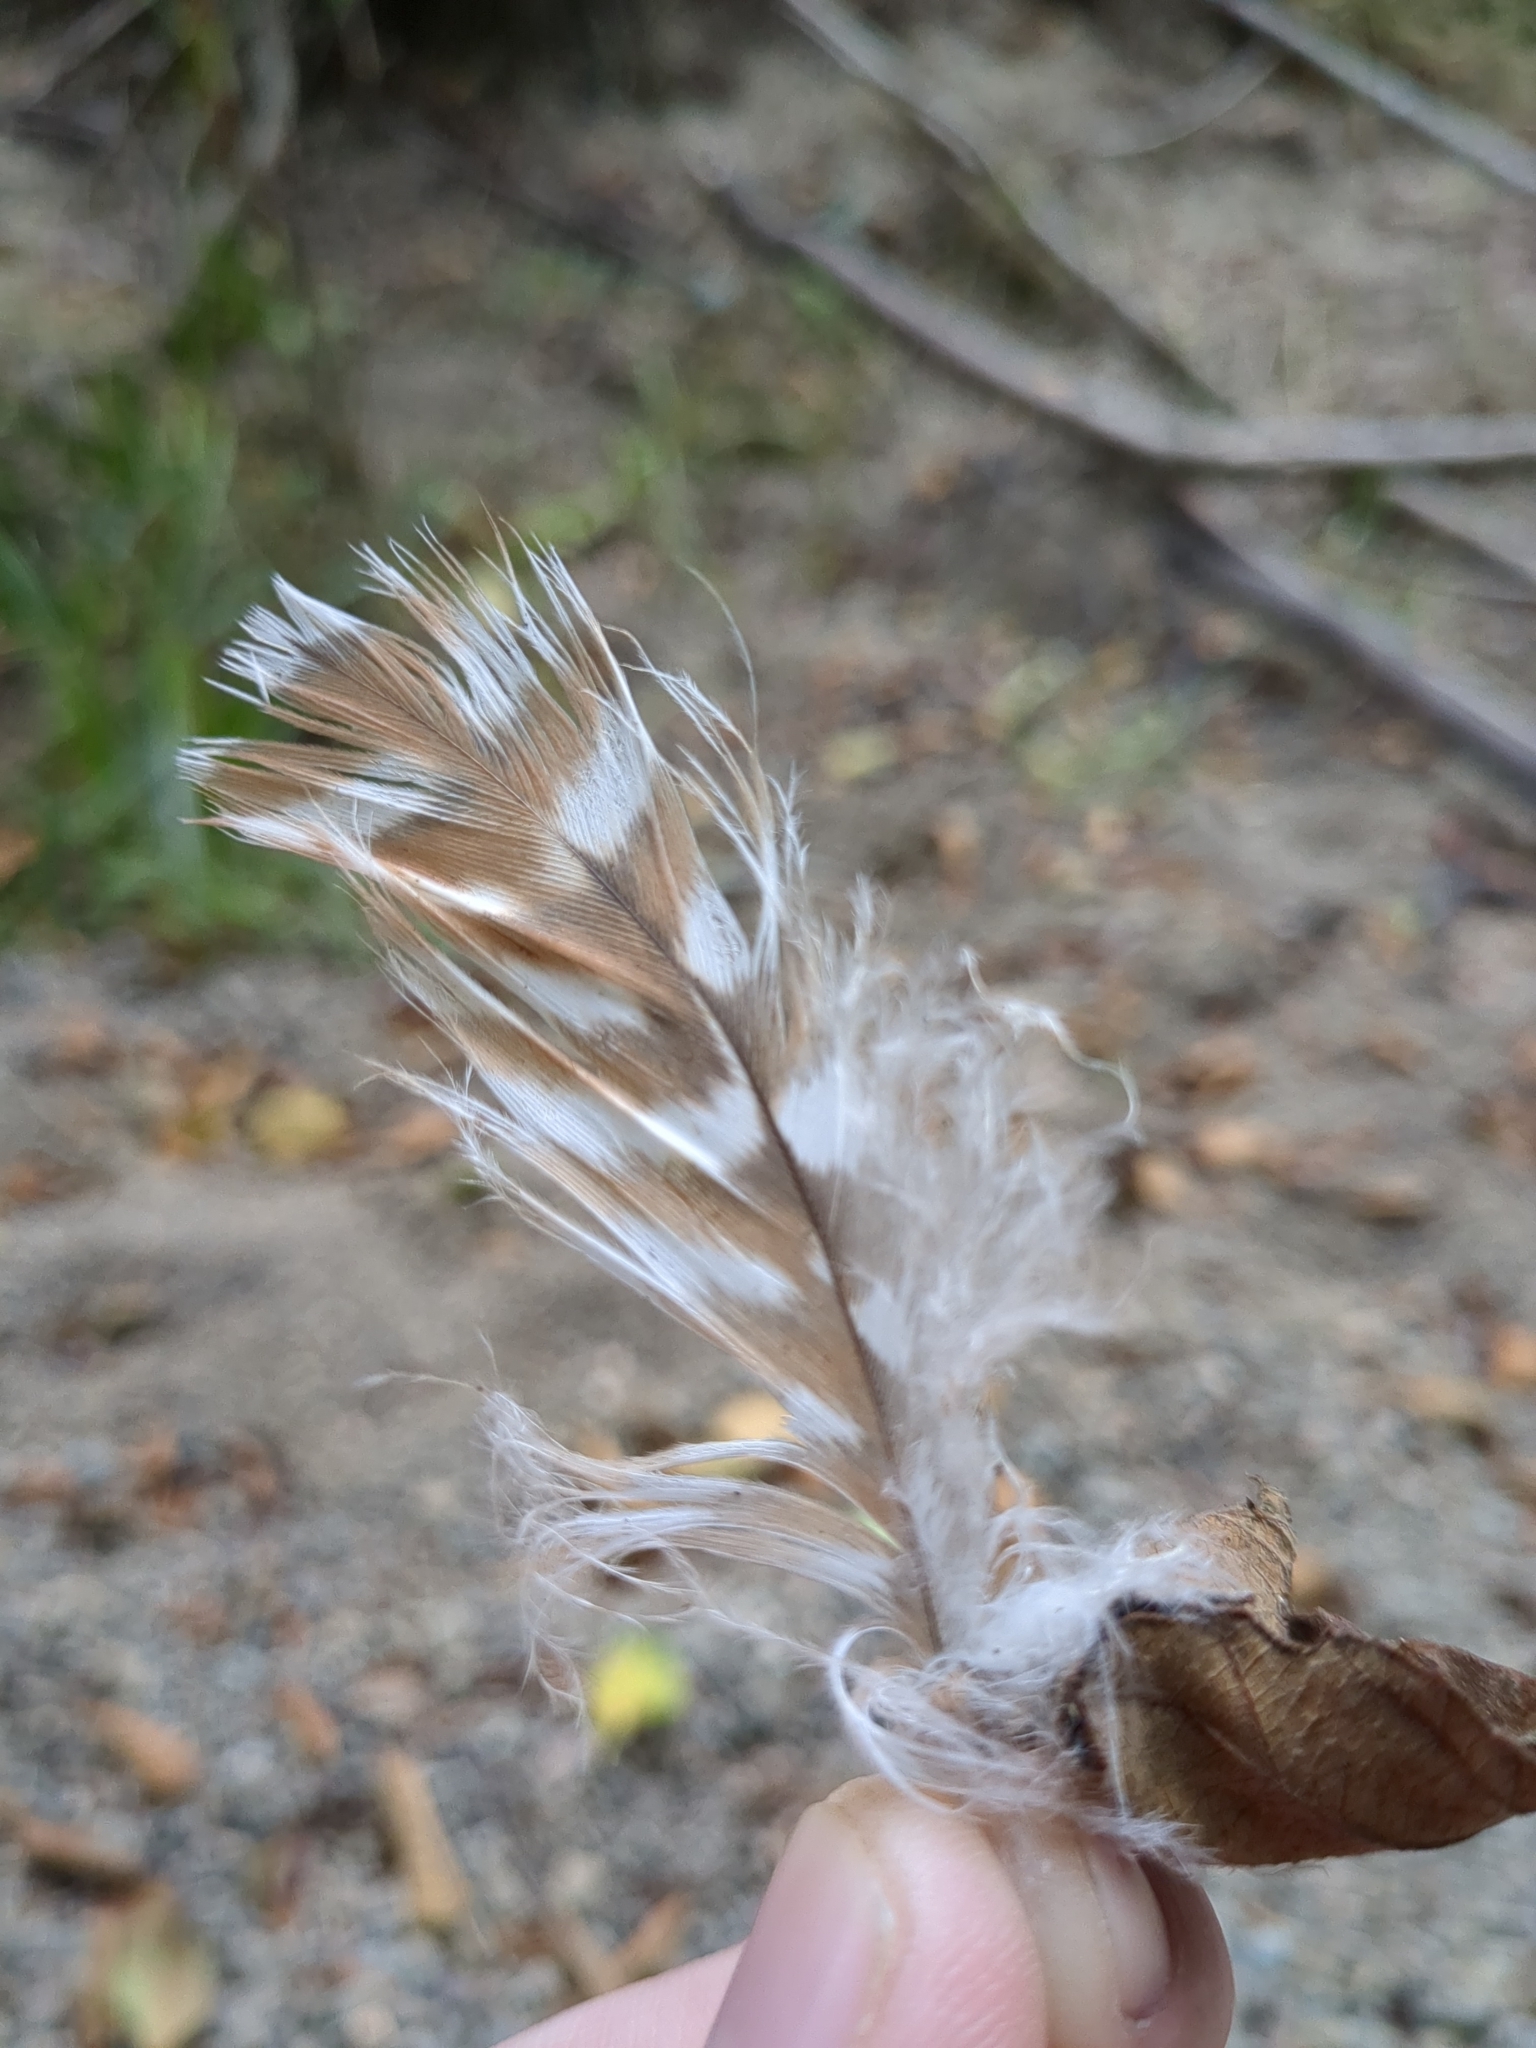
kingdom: Animalia
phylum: Chordata
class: Aves
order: Accipitriformes
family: Accipitridae
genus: Buteo
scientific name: Buteo lineatus
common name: Red-shouldered hawk
